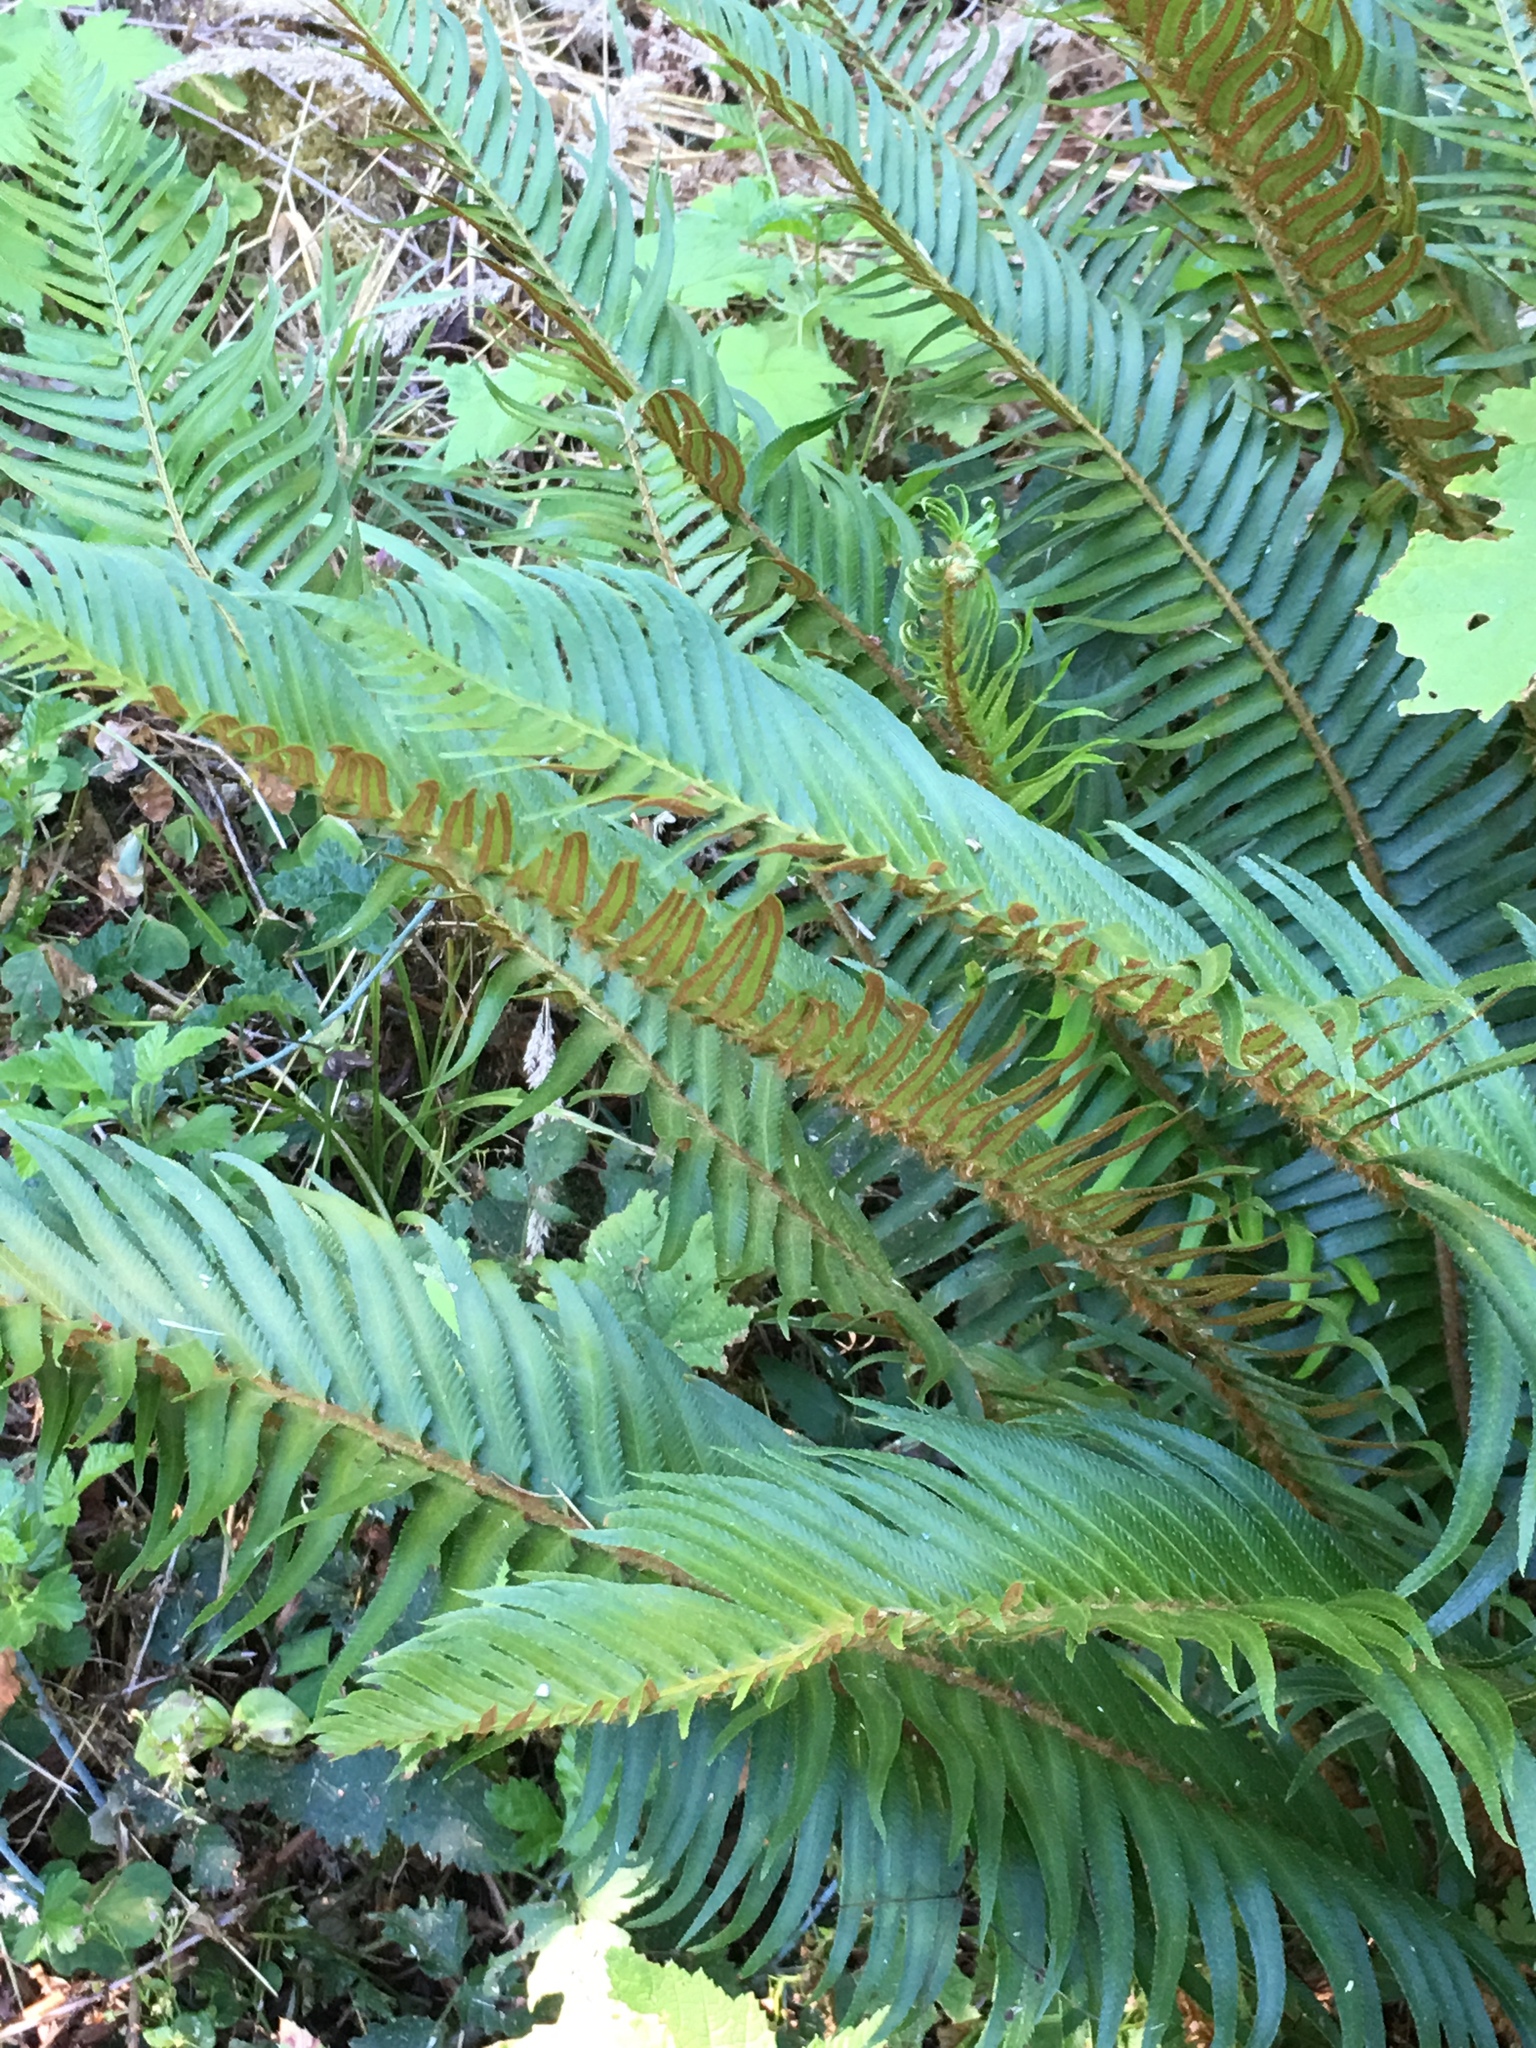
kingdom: Plantae
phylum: Tracheophyta
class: Polypodiopsida
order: Polypodiales
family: Dryopteridaceae
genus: Polystichum
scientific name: Polystichum munitum
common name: Western sword-fern
